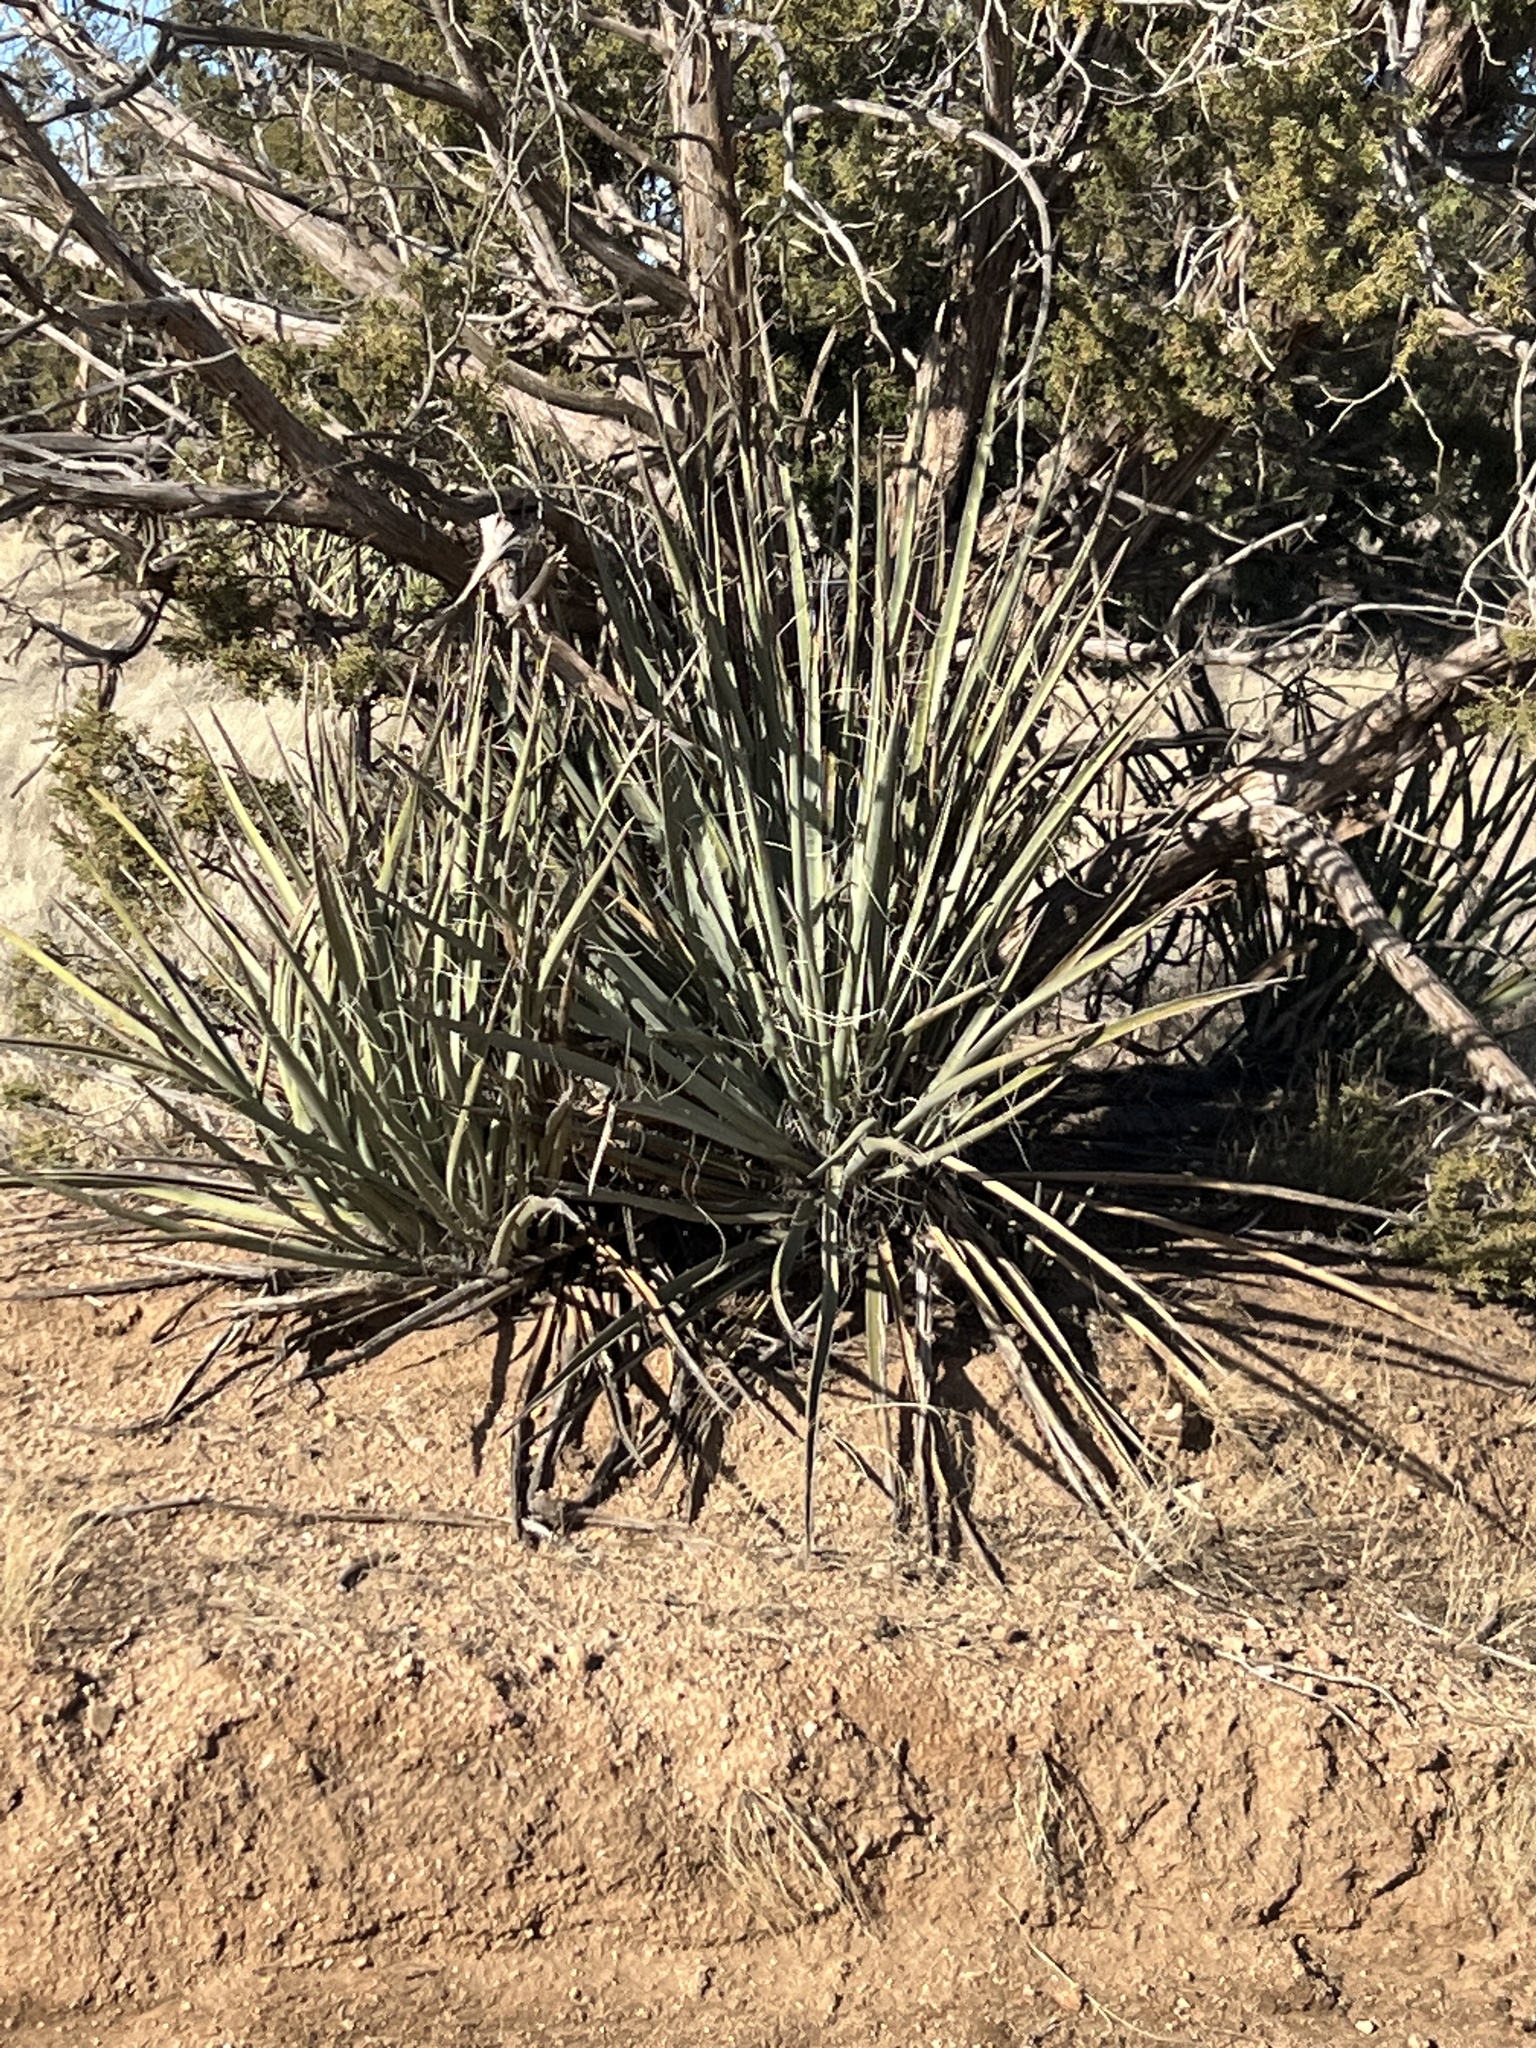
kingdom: Plantae
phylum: Tracheophyta
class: Liliopsida
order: Asparagales
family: Asparagaceae
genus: Yucca
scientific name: Yucca baccata
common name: Banana yucca
